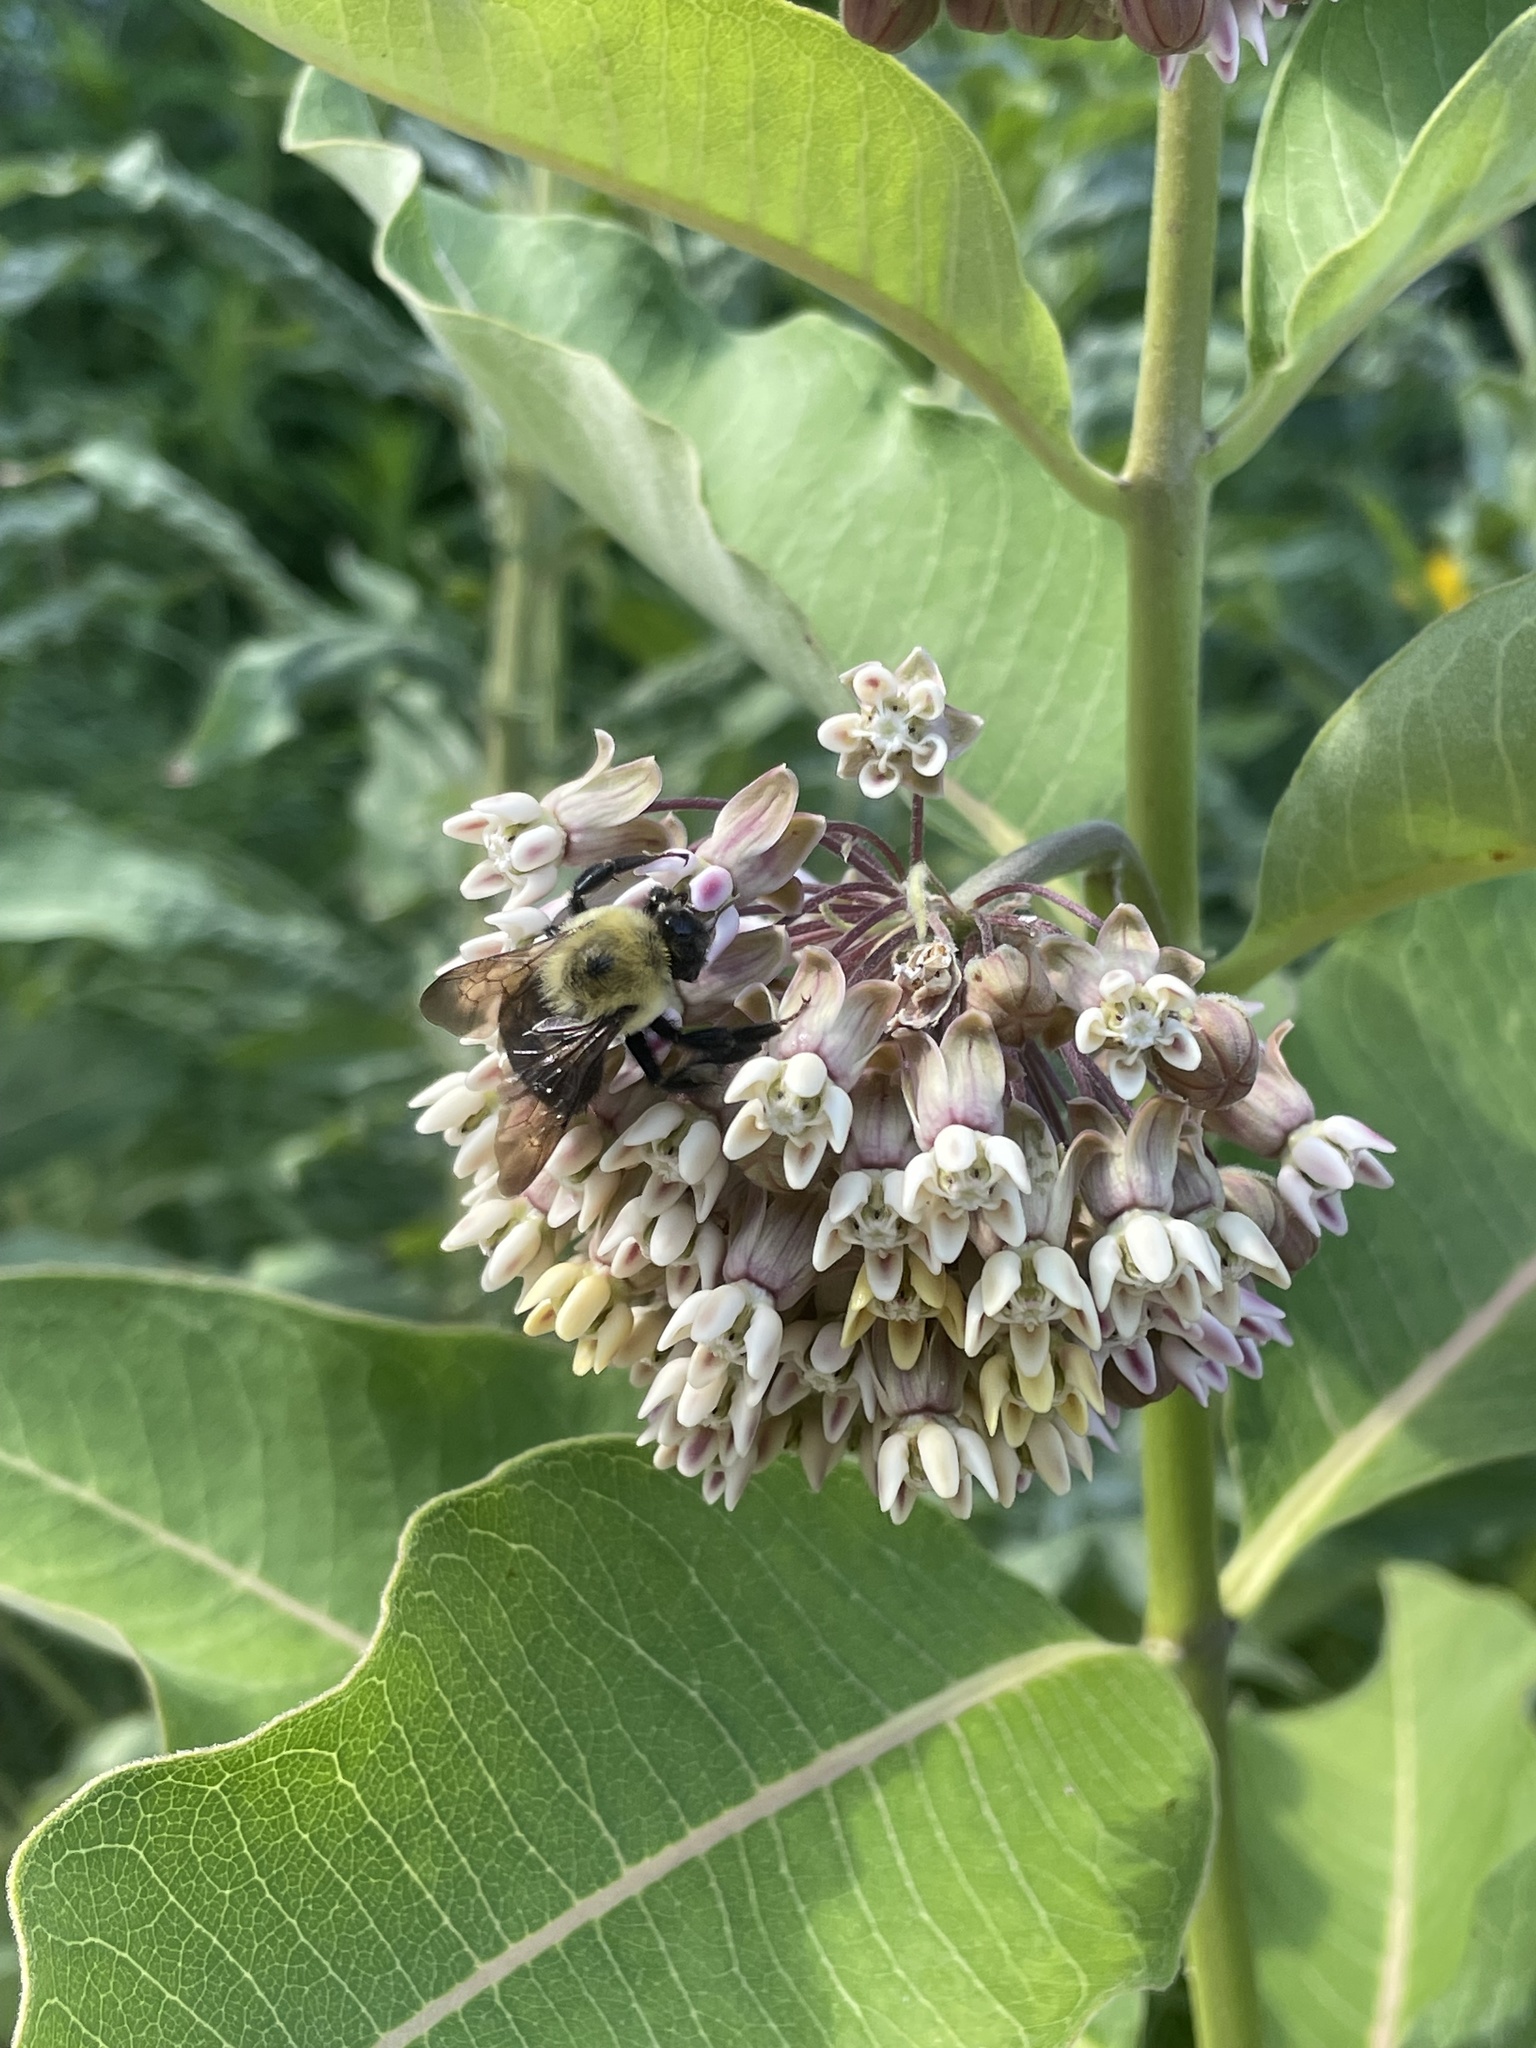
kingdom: Animalia
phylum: Arthropoda
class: Insecta
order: Hymenoptera
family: Apidae
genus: Bombus
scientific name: Bombus griseocollis
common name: Brown-belted bumble bee
